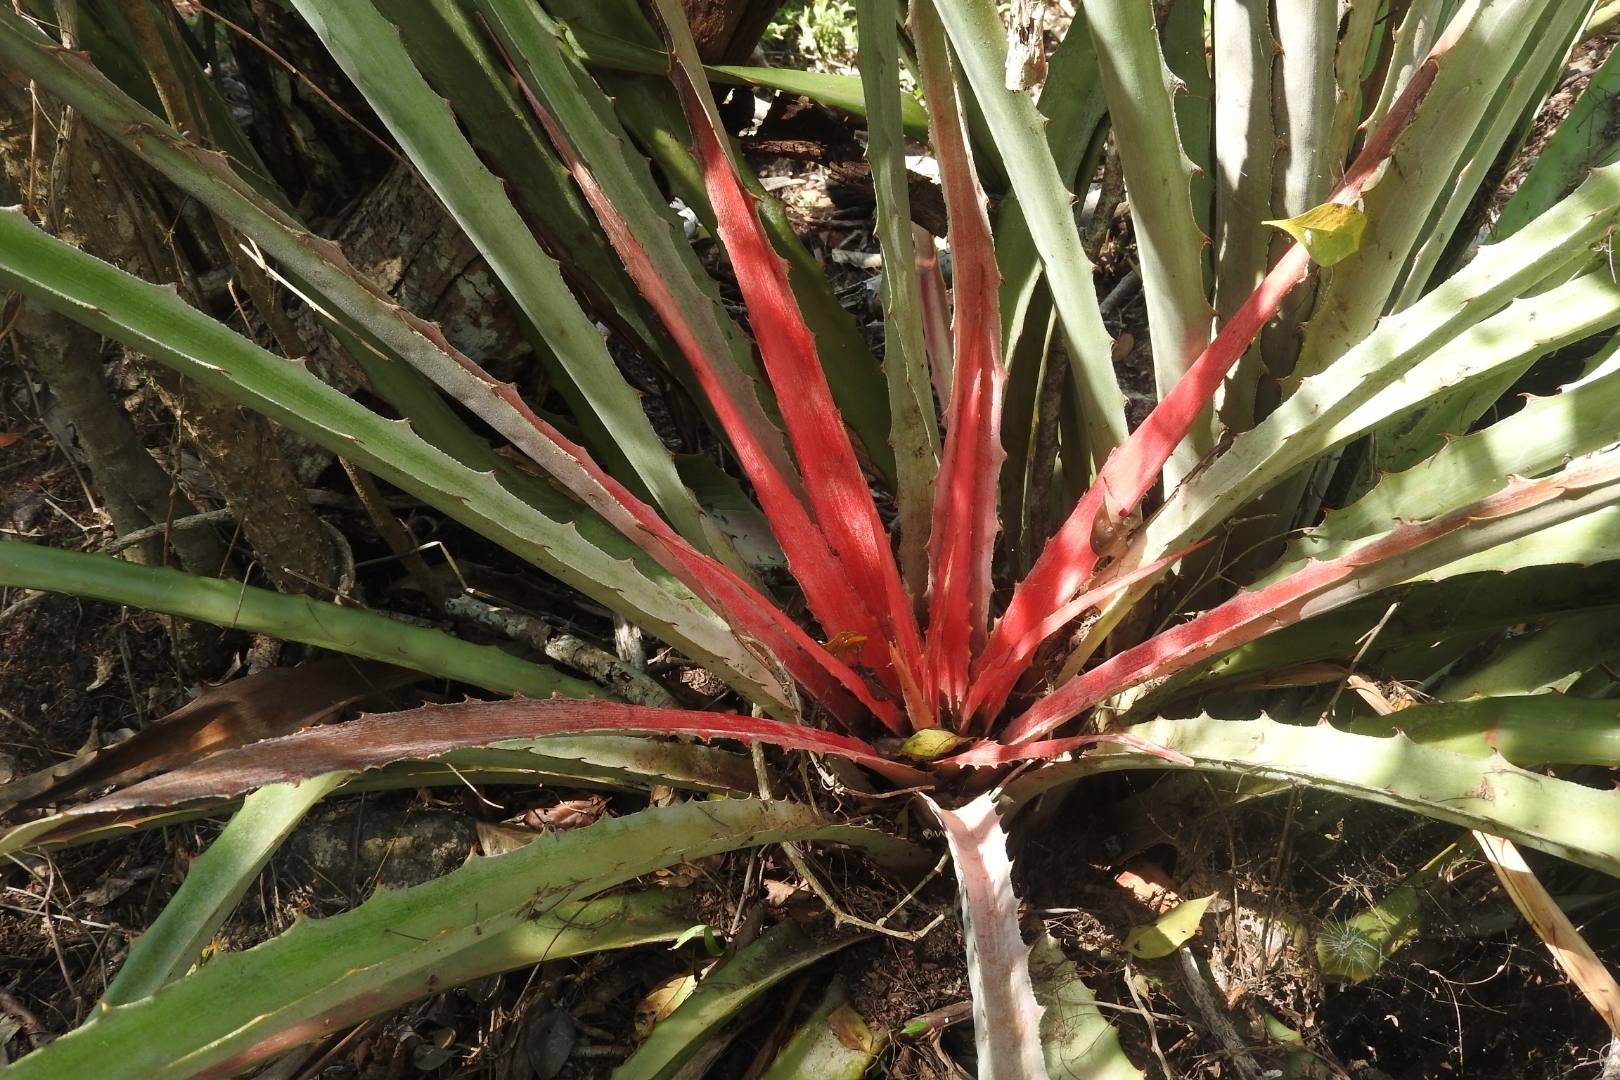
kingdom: Plantae
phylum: Tracheophyta
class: Liliopsida
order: Poales
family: Bromeliaceae
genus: Bromelia
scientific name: Bromelia karatas
